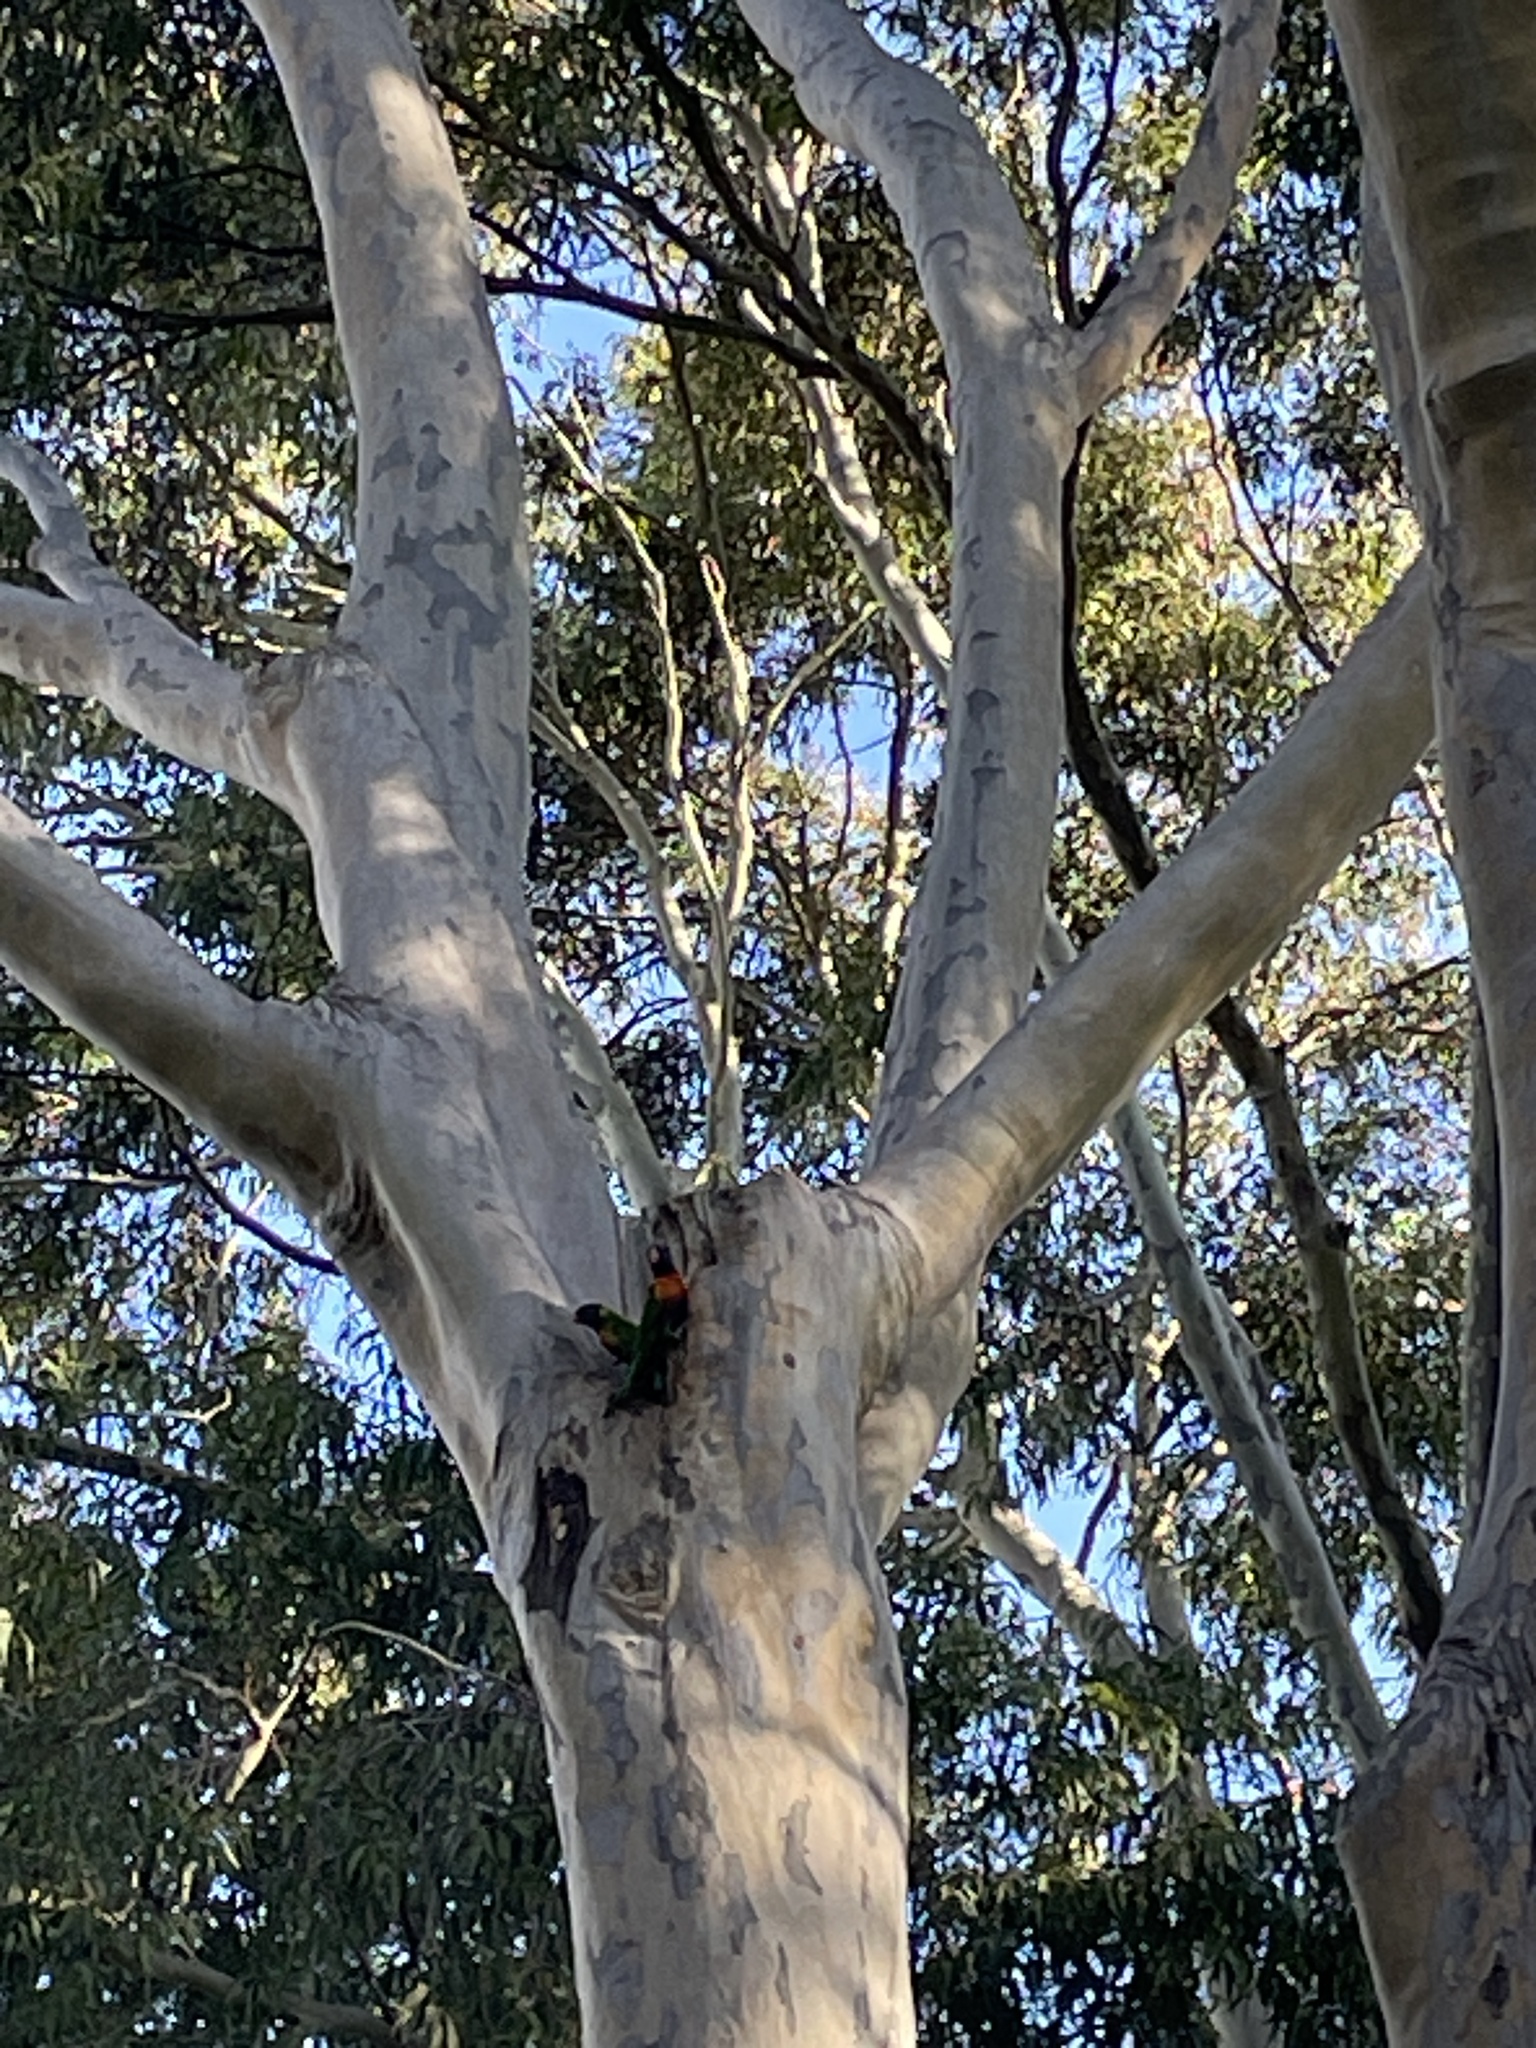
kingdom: Animalia
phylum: Chordata
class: Aves
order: Psittaciformes
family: Psittacidae
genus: Trichoglossus
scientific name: Trichoglossus haematodus
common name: Coconut lorikeet
